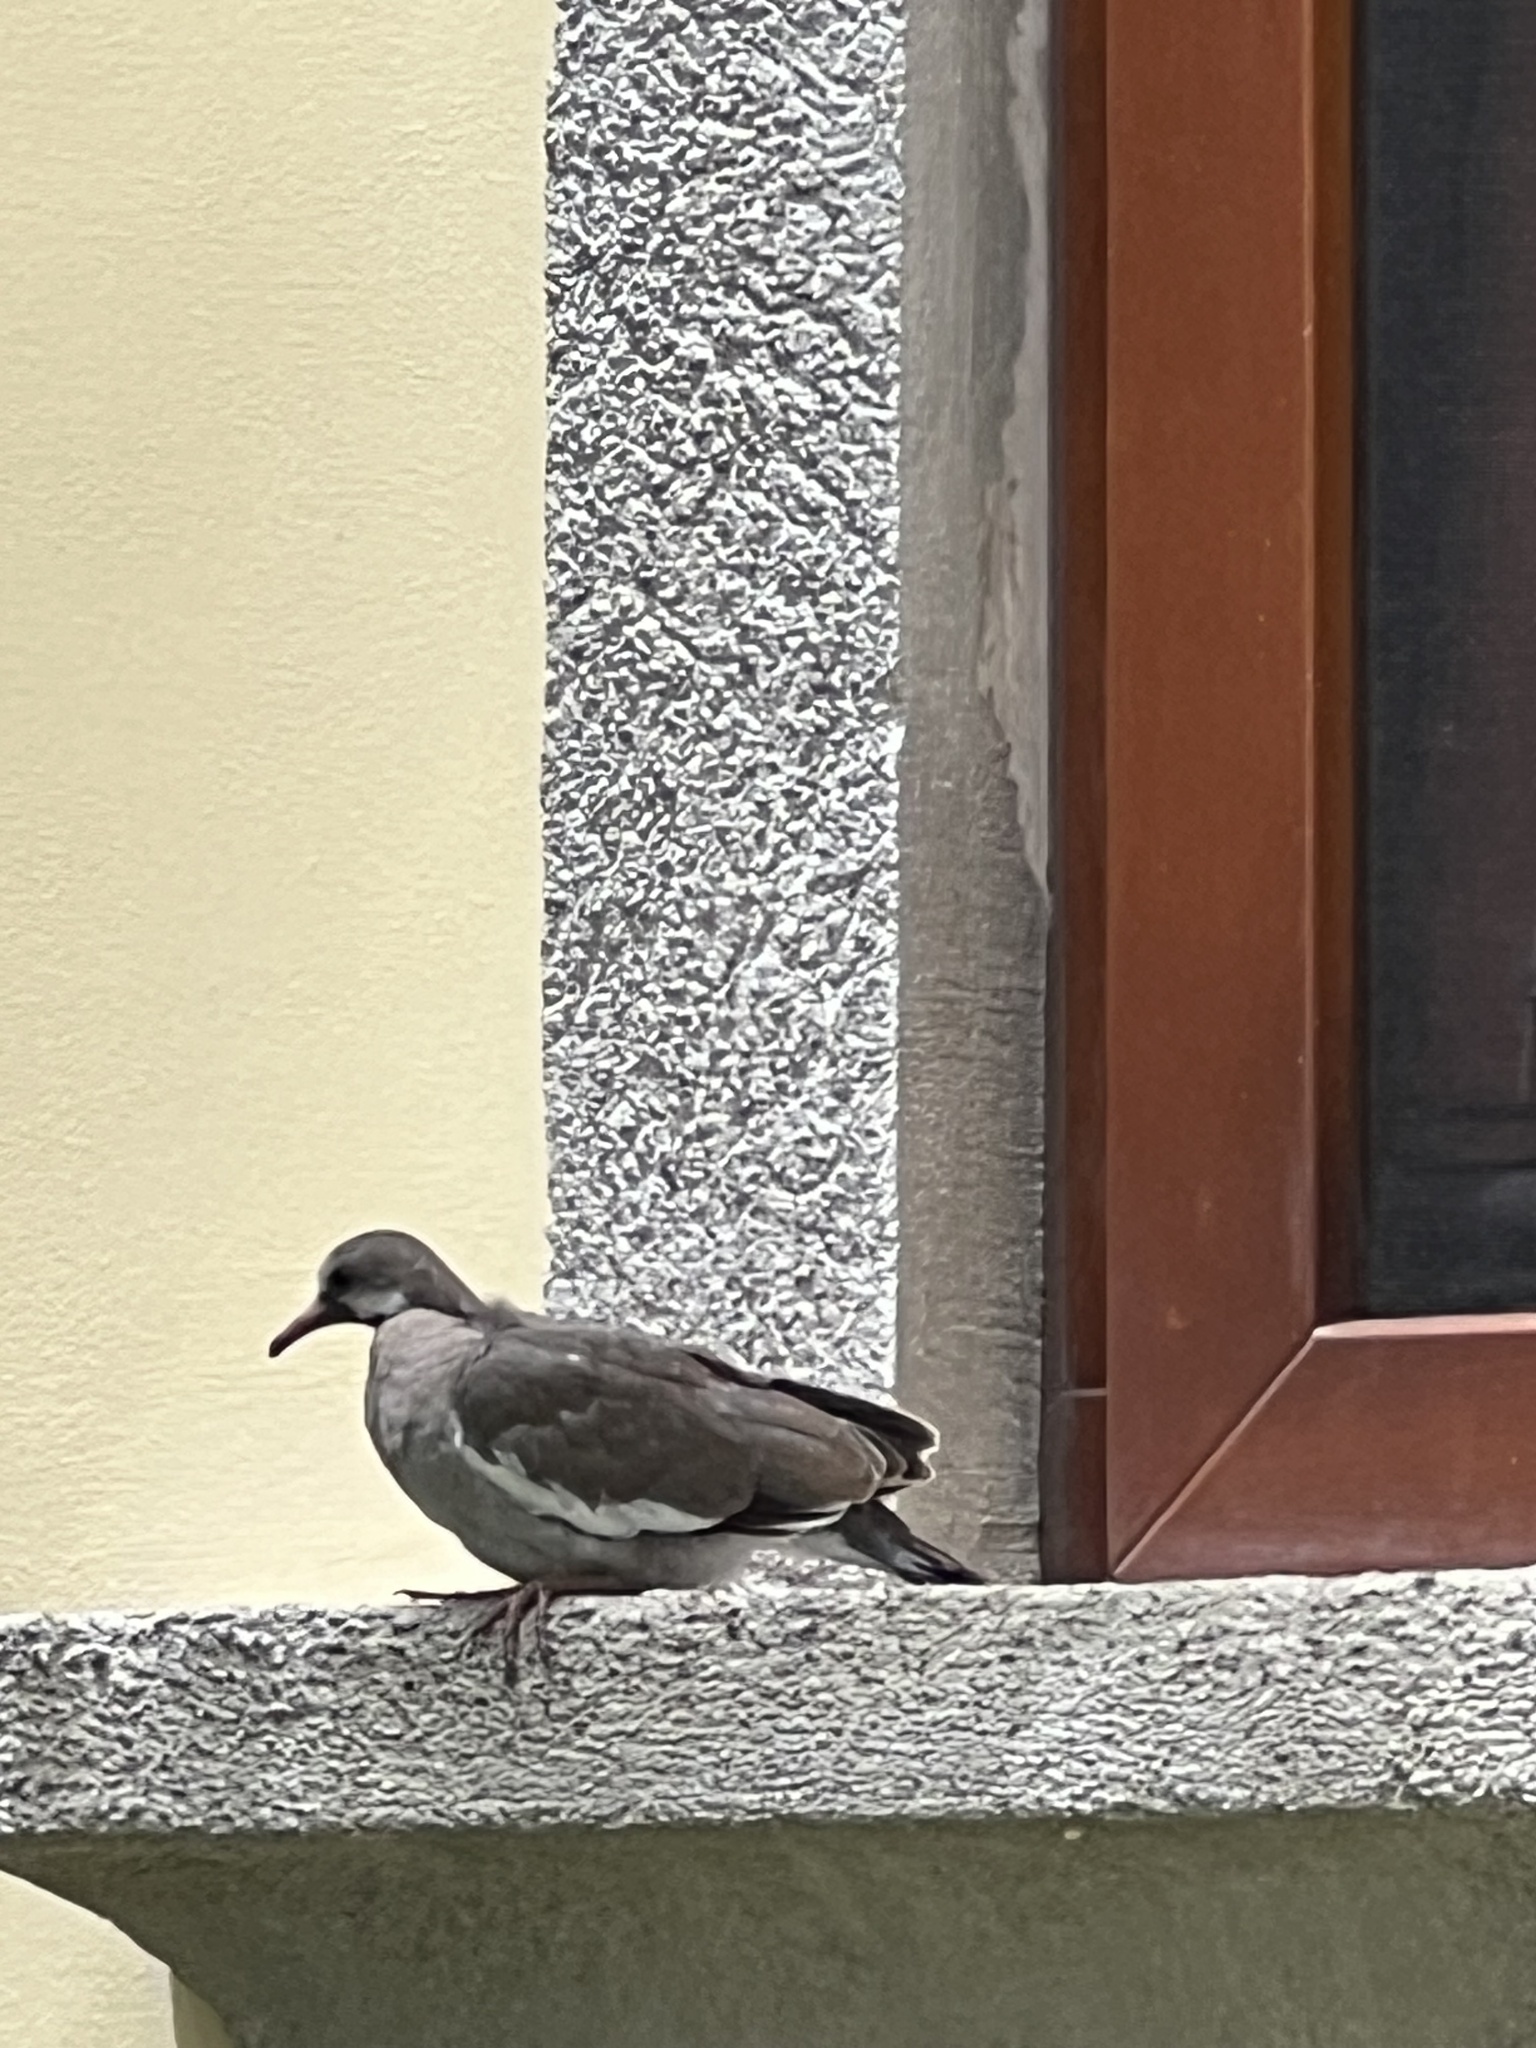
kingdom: Animalia
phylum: Chordata
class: Aves
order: Columbiformes
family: Columbidae
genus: Zenaida
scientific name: Zenaida asiatica
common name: White-winged dove
